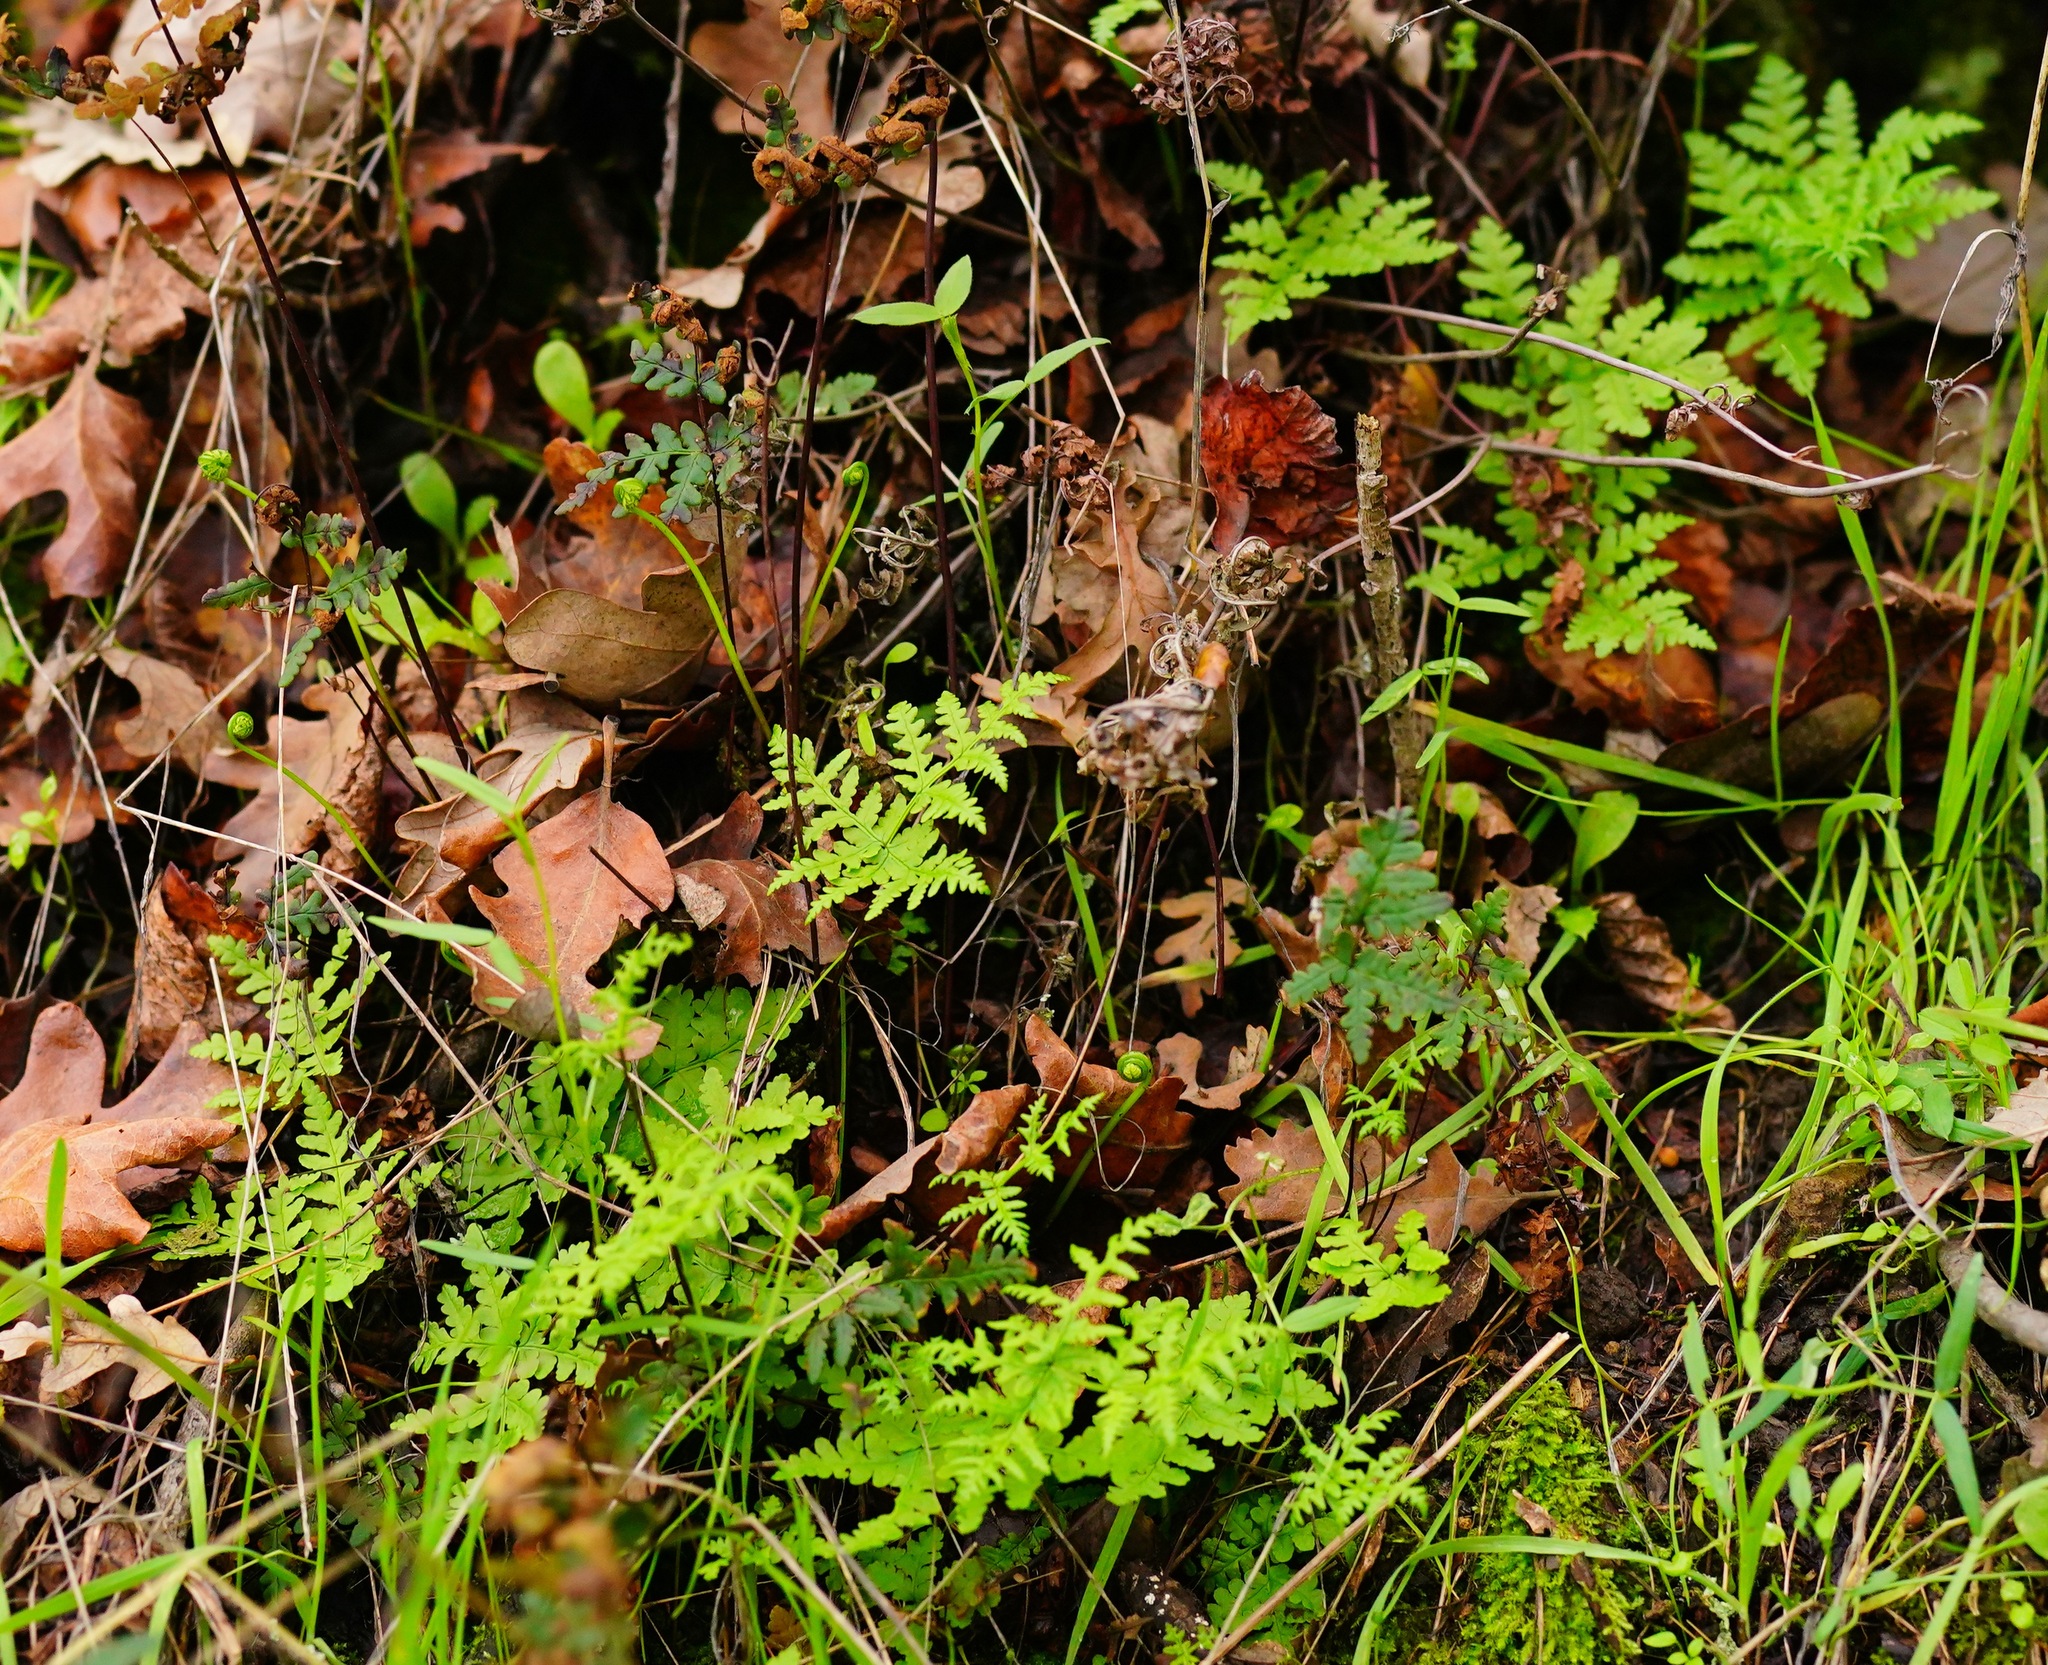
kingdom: Plantae
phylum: Tracheophyta
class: Polypodiopsida
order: Polypodiales
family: Pteridaceae
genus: Pentagramma
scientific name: Pentagramma triangularis
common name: Gold fern
